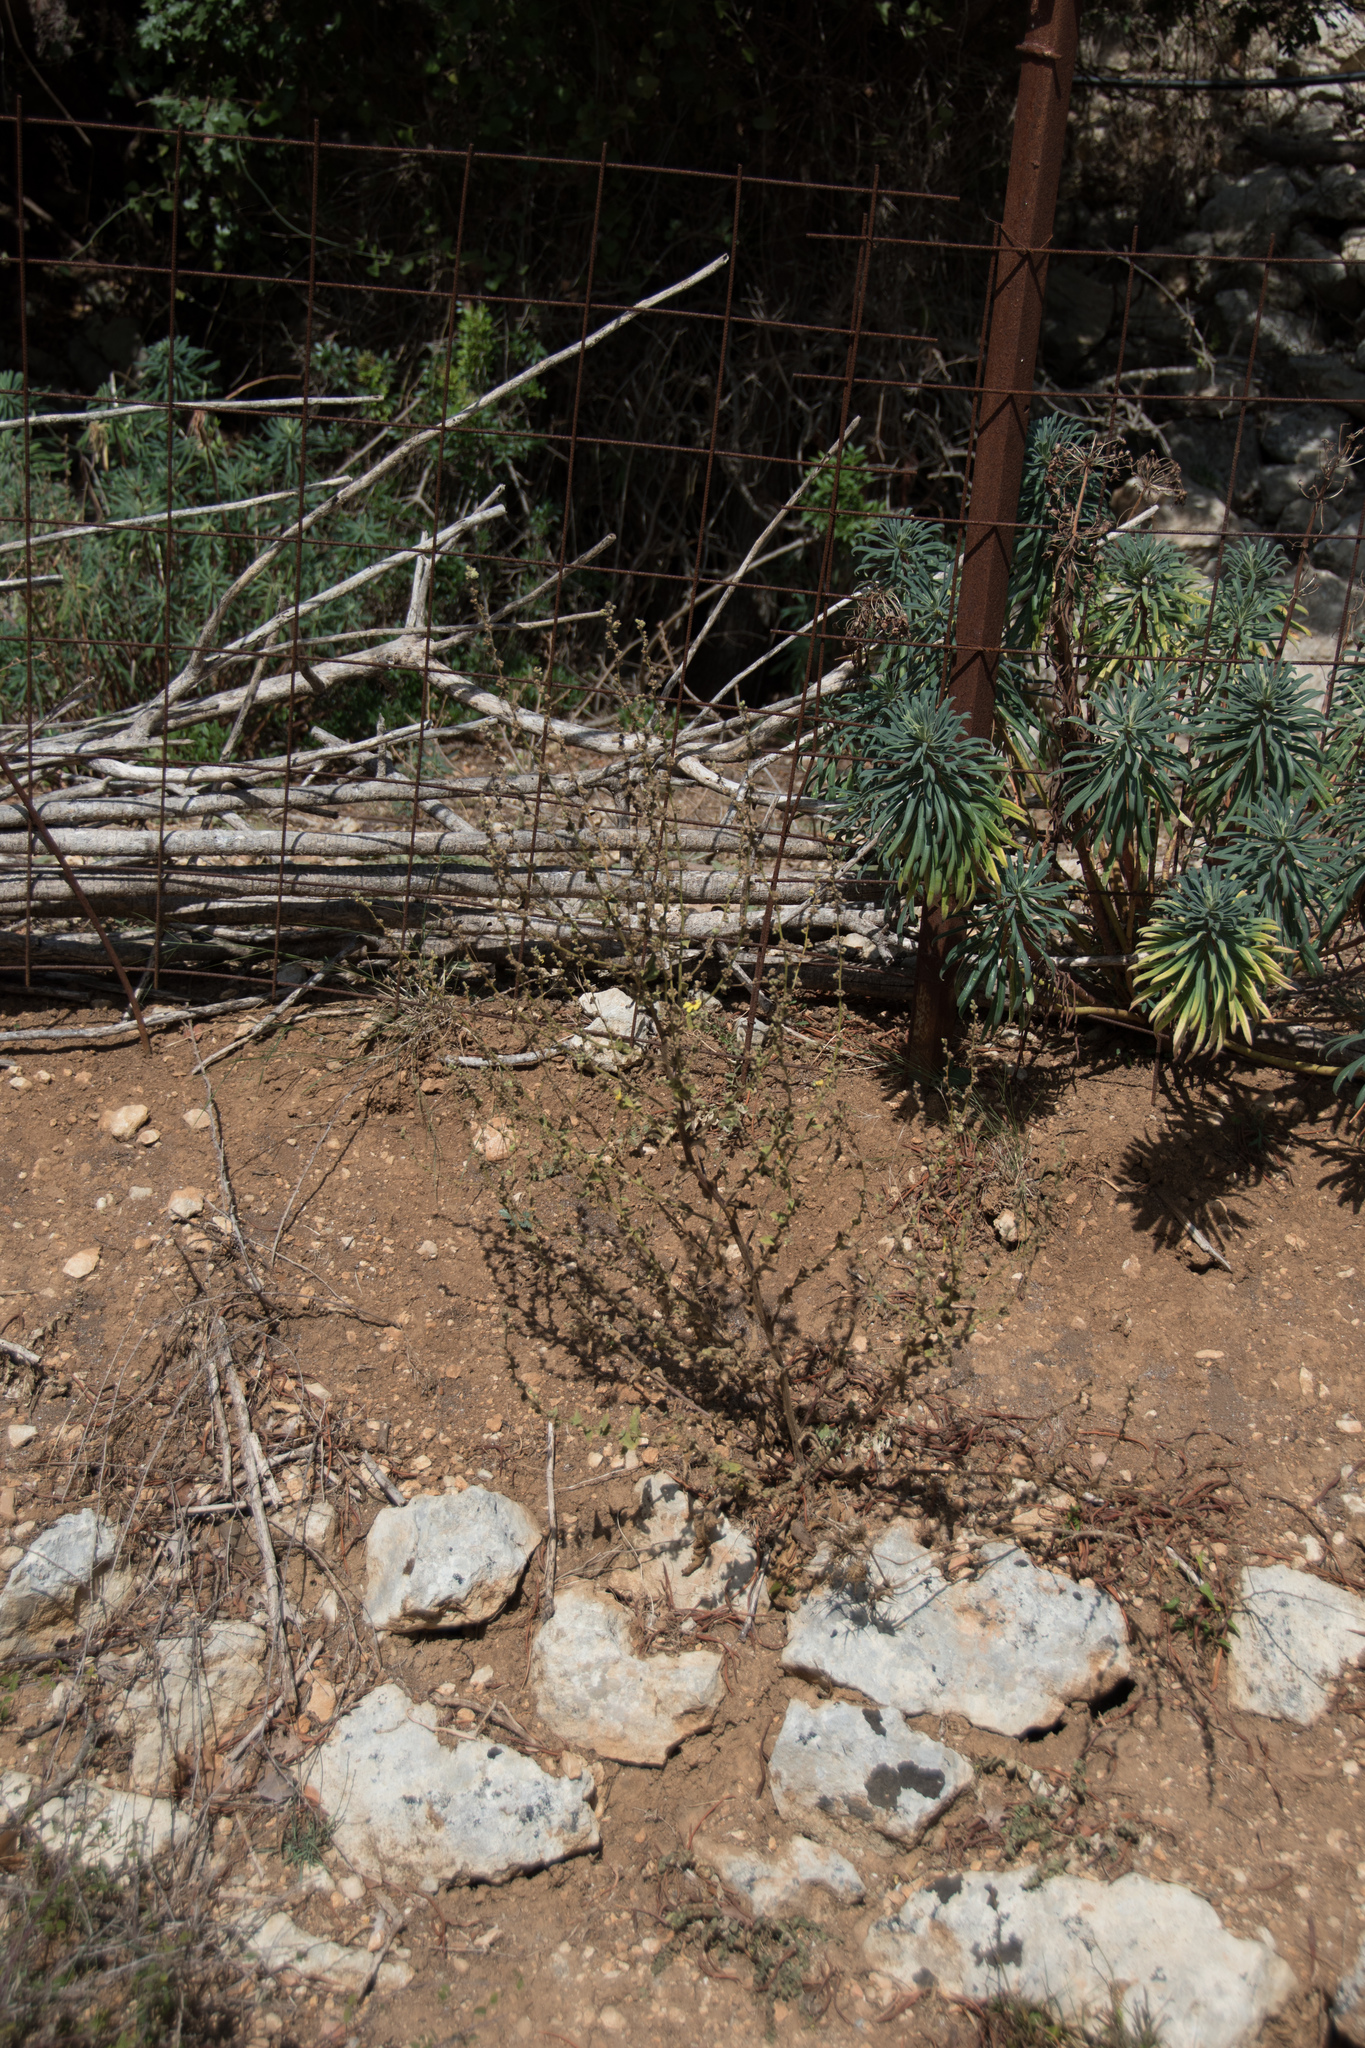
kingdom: Plantae
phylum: Tracheophyta
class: Magnoliopsida
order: Lamiales
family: Scrophulariaceae
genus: Verbascum
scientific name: Verbascum sinuatum
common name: Wavyleaf mullein
